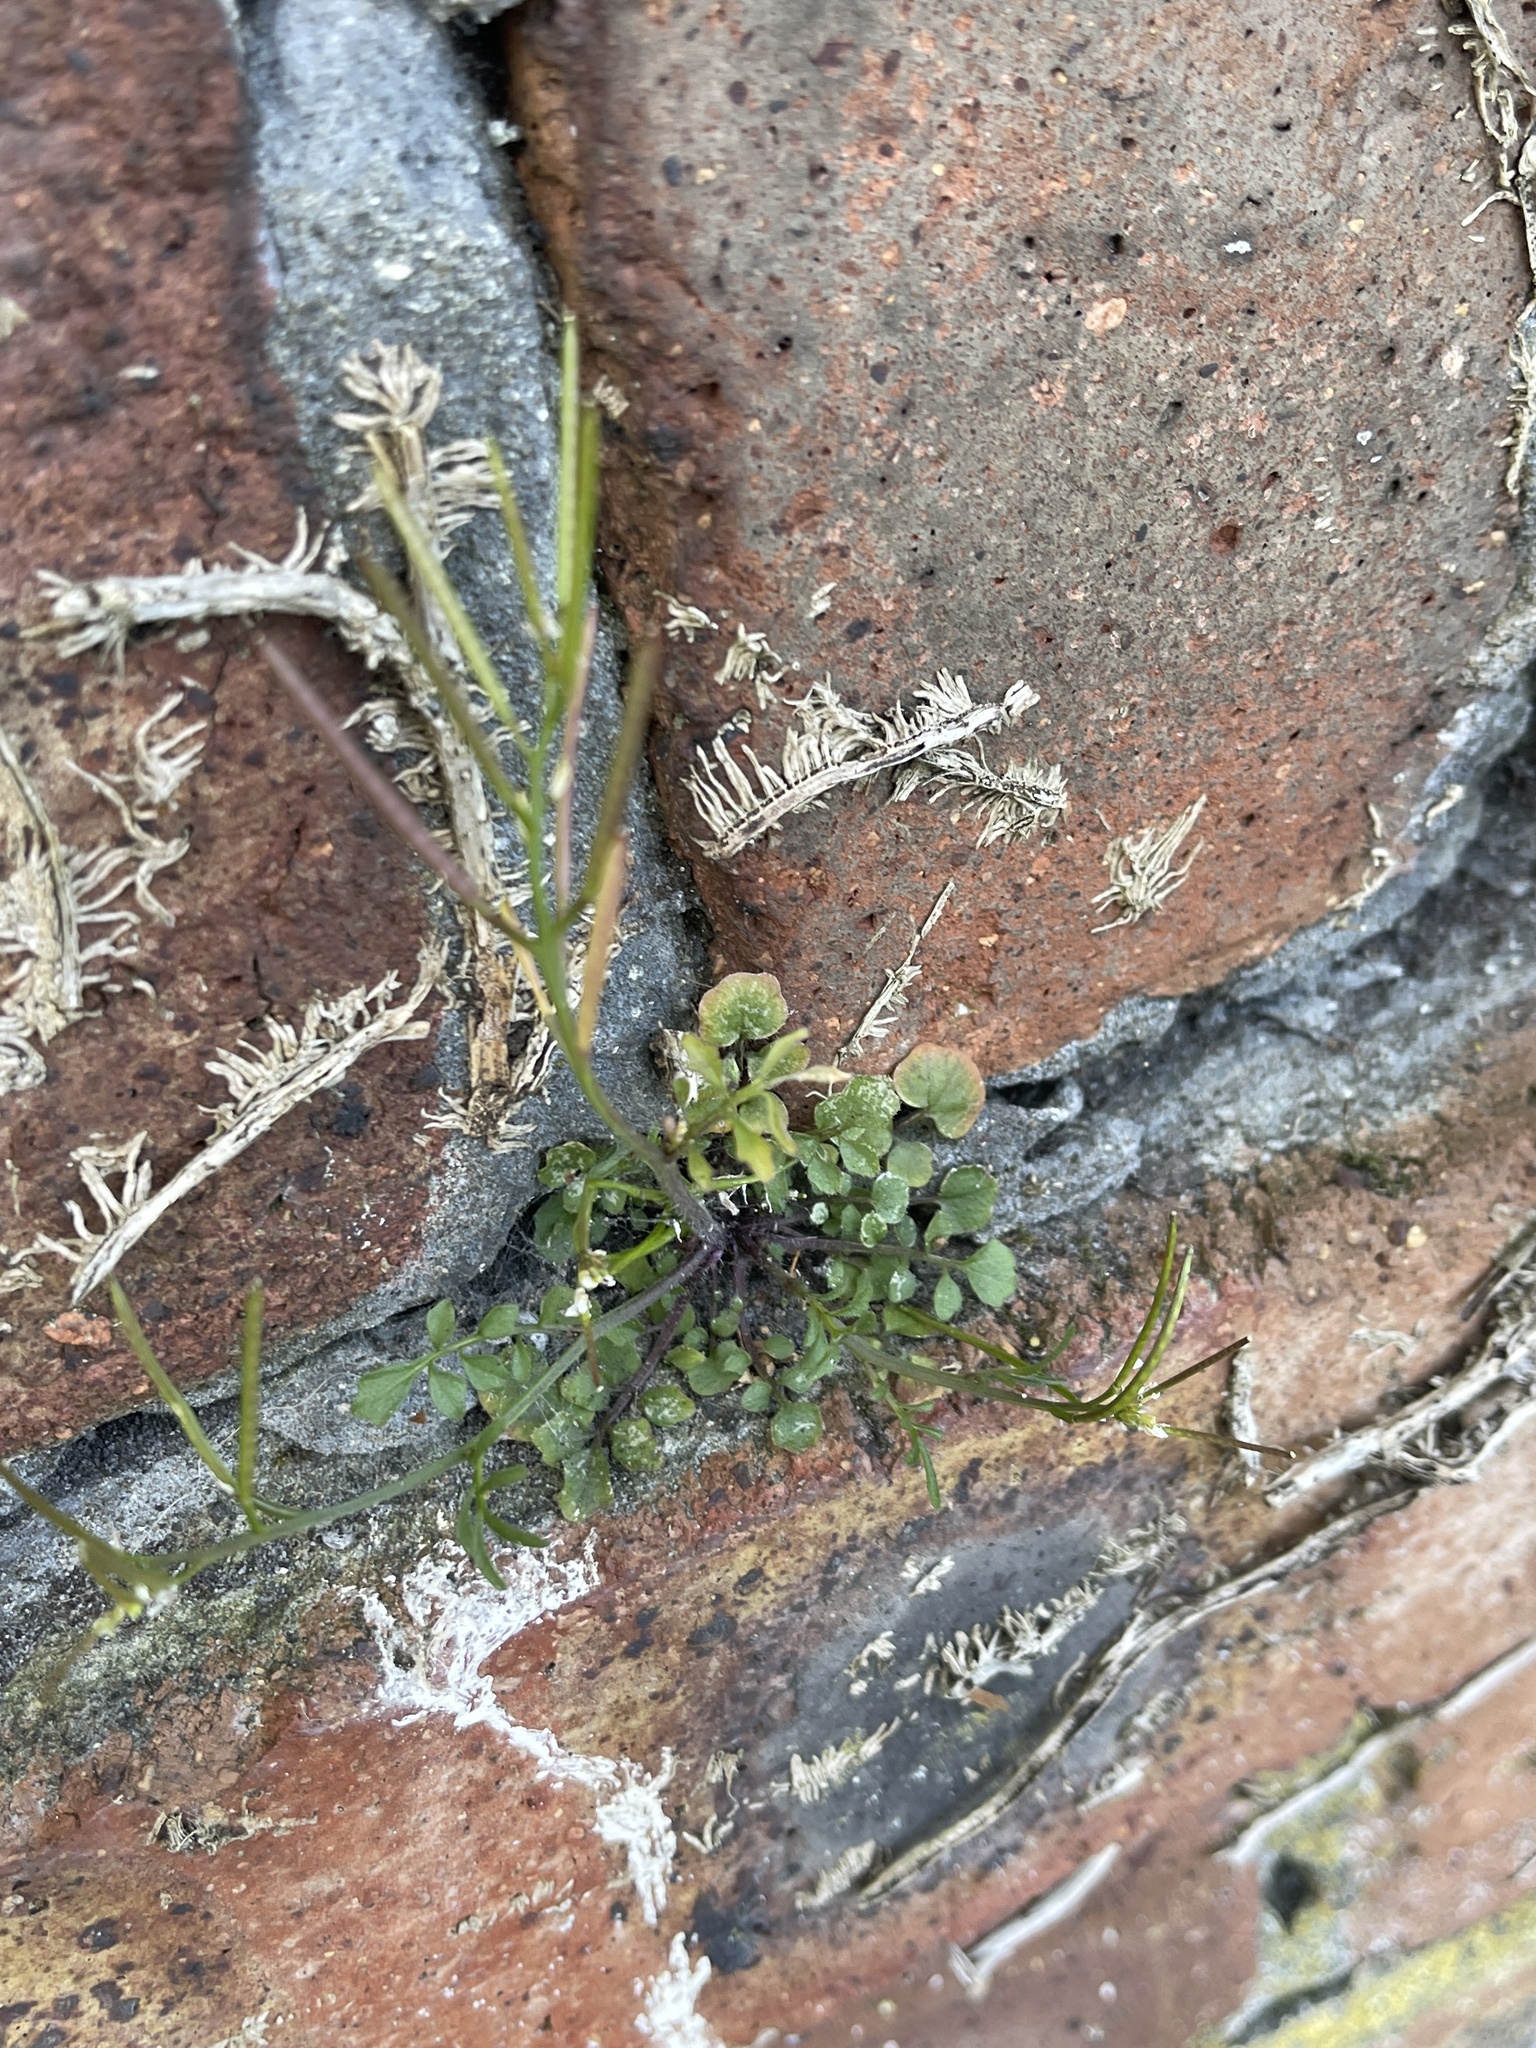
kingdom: Plantae
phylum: Tracheophyta
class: Magnoliopsida
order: Brassicales
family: Brassicaceae
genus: Cardamine
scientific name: Cardamine hirsuta
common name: Hairy bittercress
